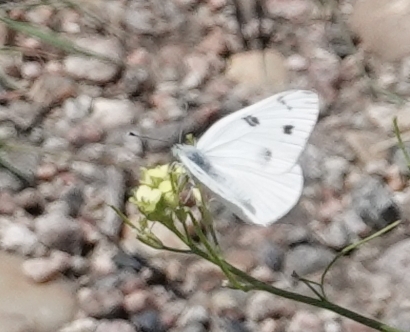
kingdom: Animalia
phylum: Arthropoda
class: Insecta
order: Lepidoptera
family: Pieridae
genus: Pontia
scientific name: Pontia protodice
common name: Checkered white
